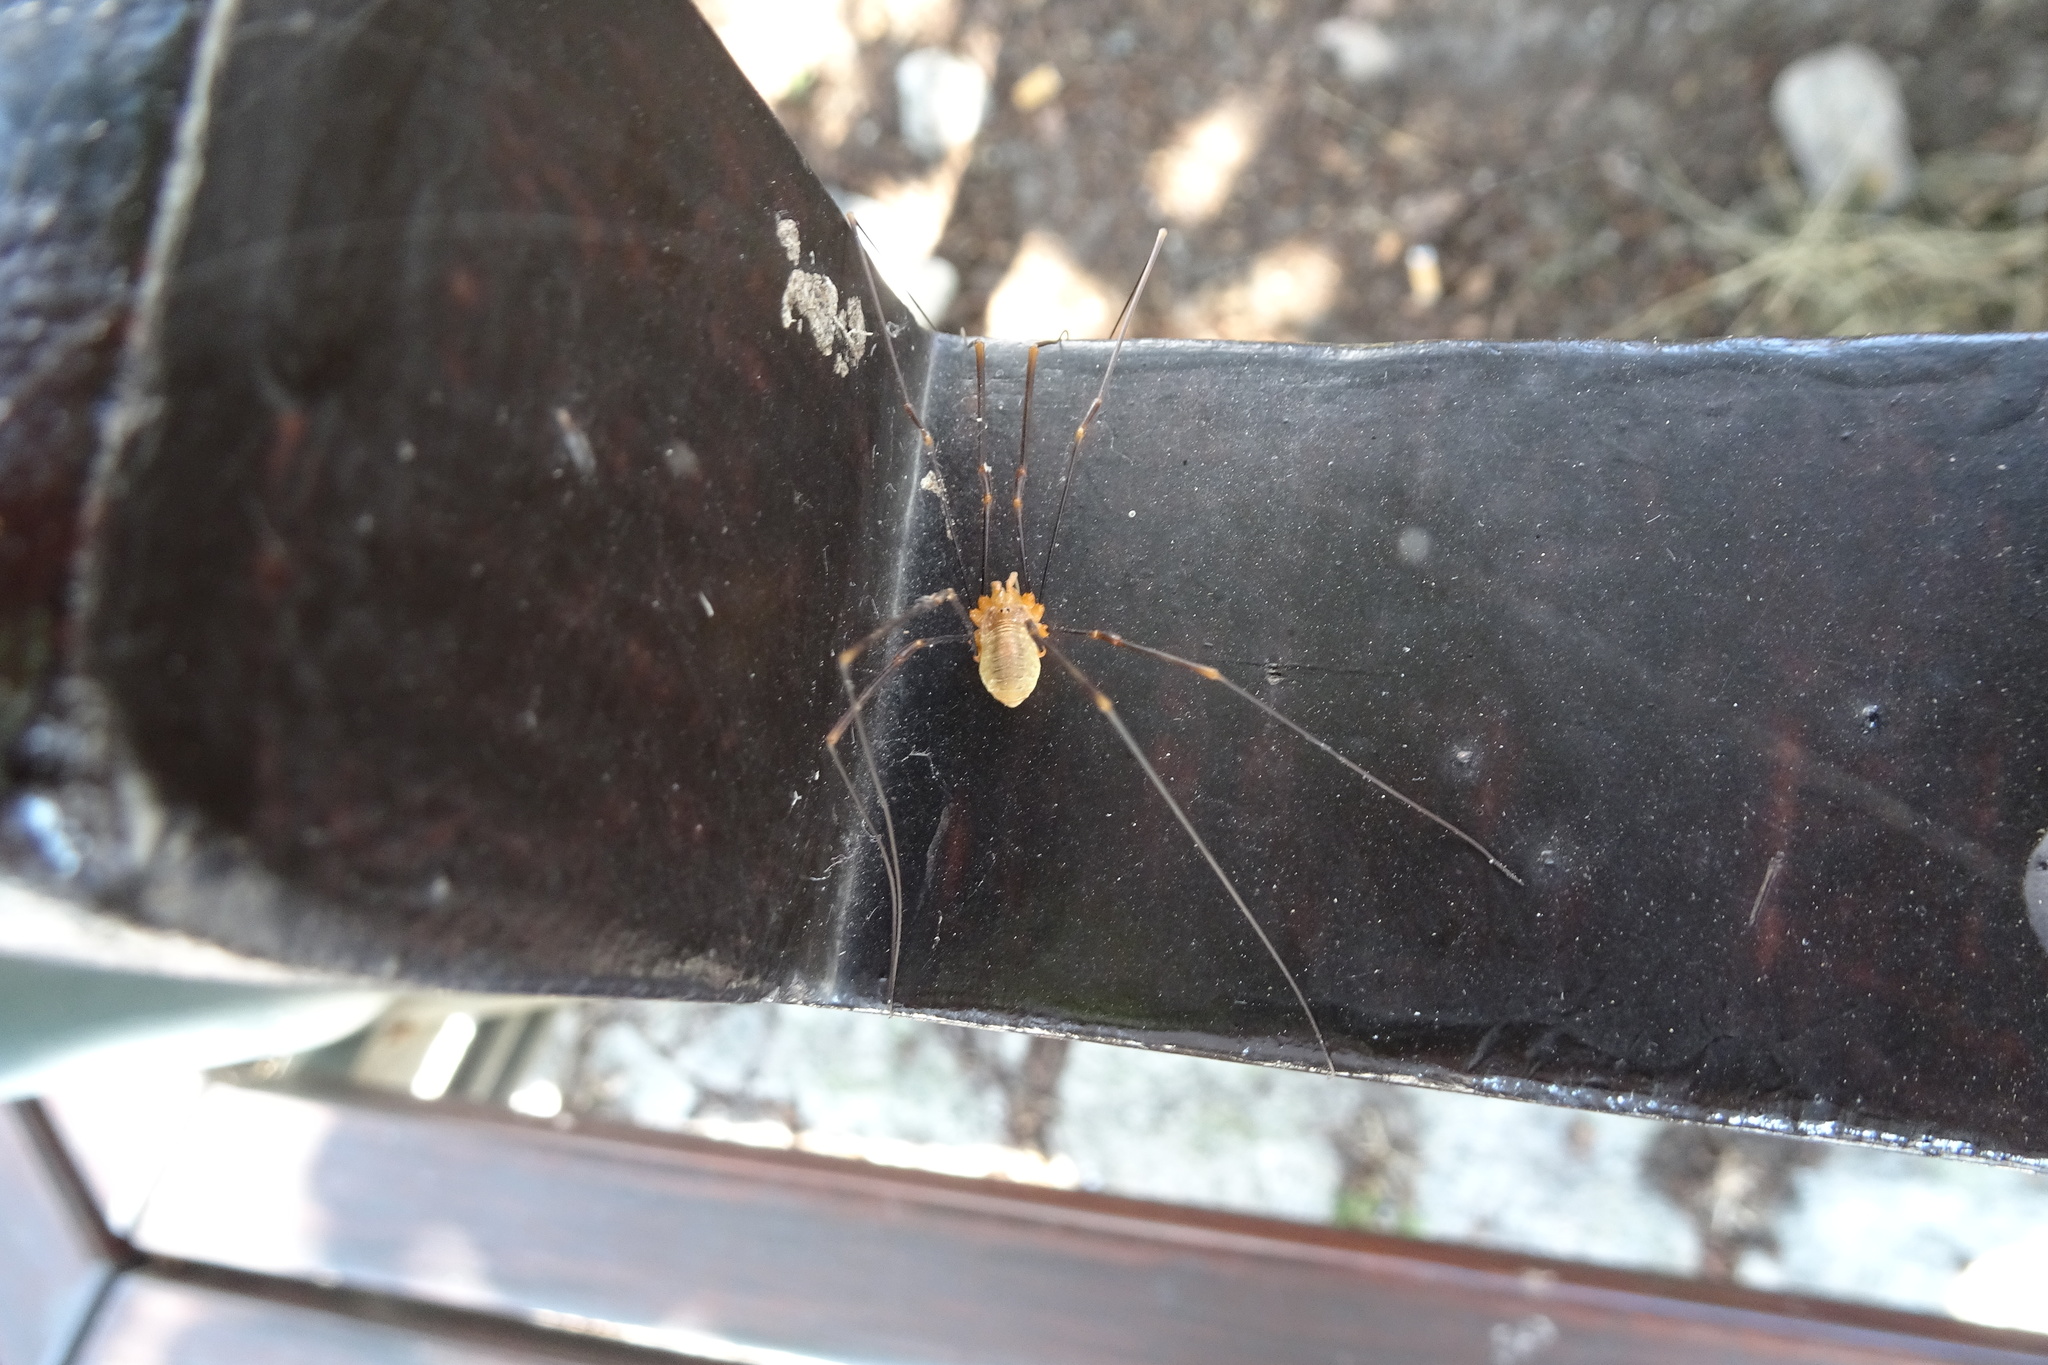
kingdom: Animalia
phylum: Arthropoda
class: Arachnida
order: Opiliones
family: Phalangiidae
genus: Opilio
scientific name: Opilio canestrinii
